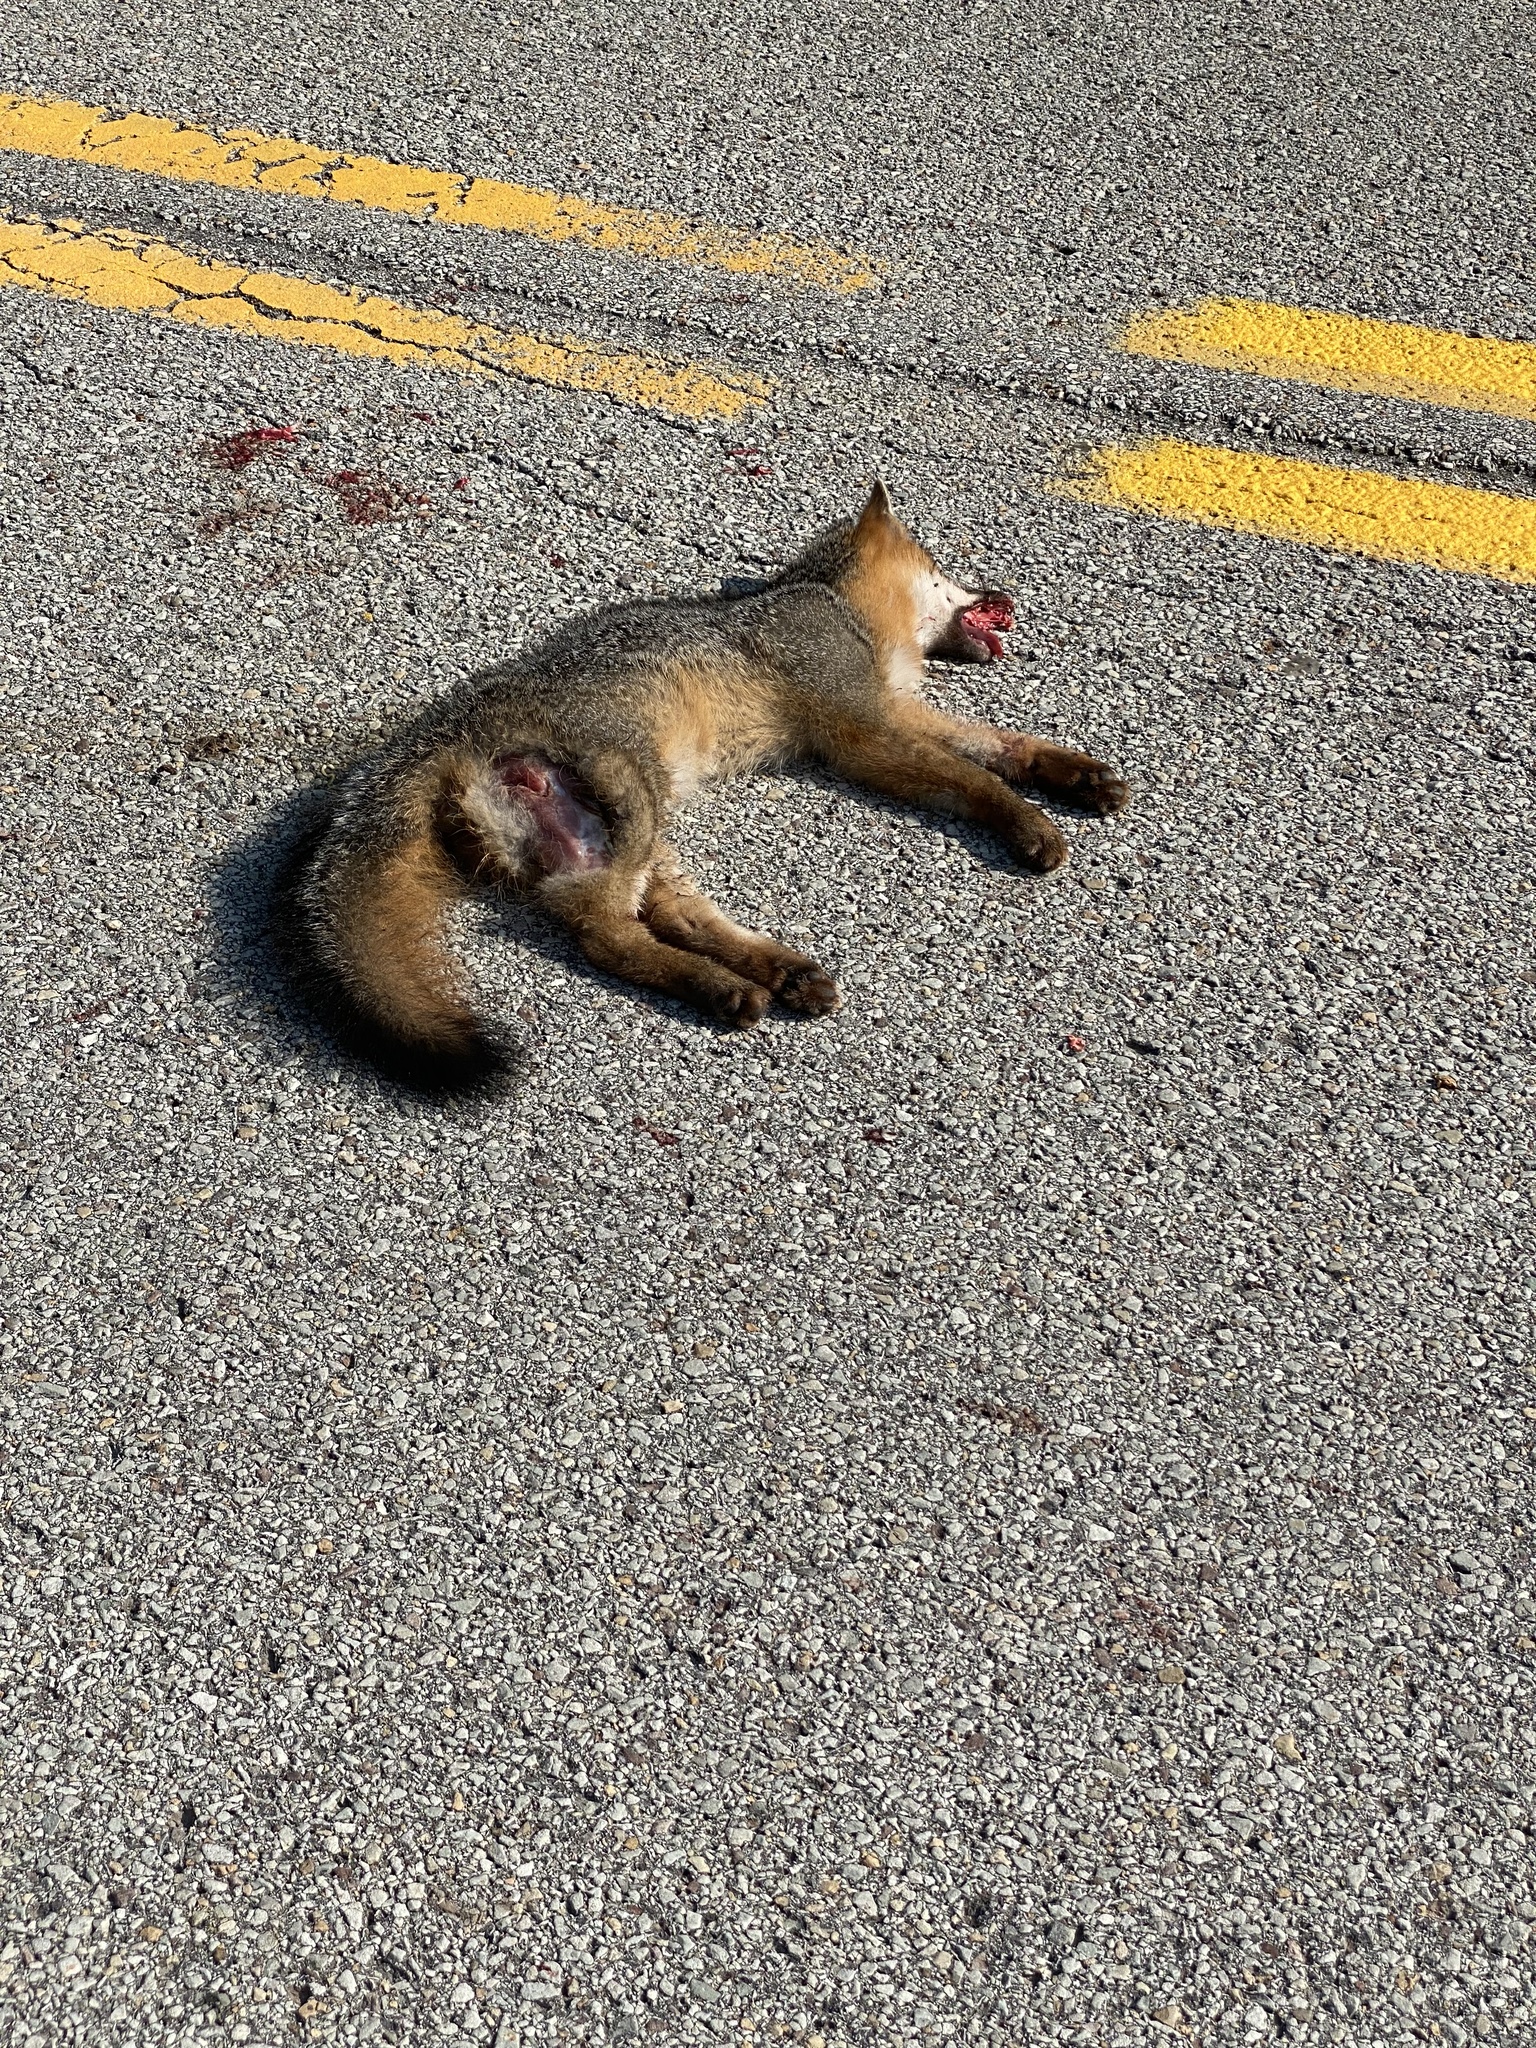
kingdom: Animalia
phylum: Chordata
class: Mammalia
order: Carnivora
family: Canidae
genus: Urocyon
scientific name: Urocyon cinereoargenteus
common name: Gray fox
